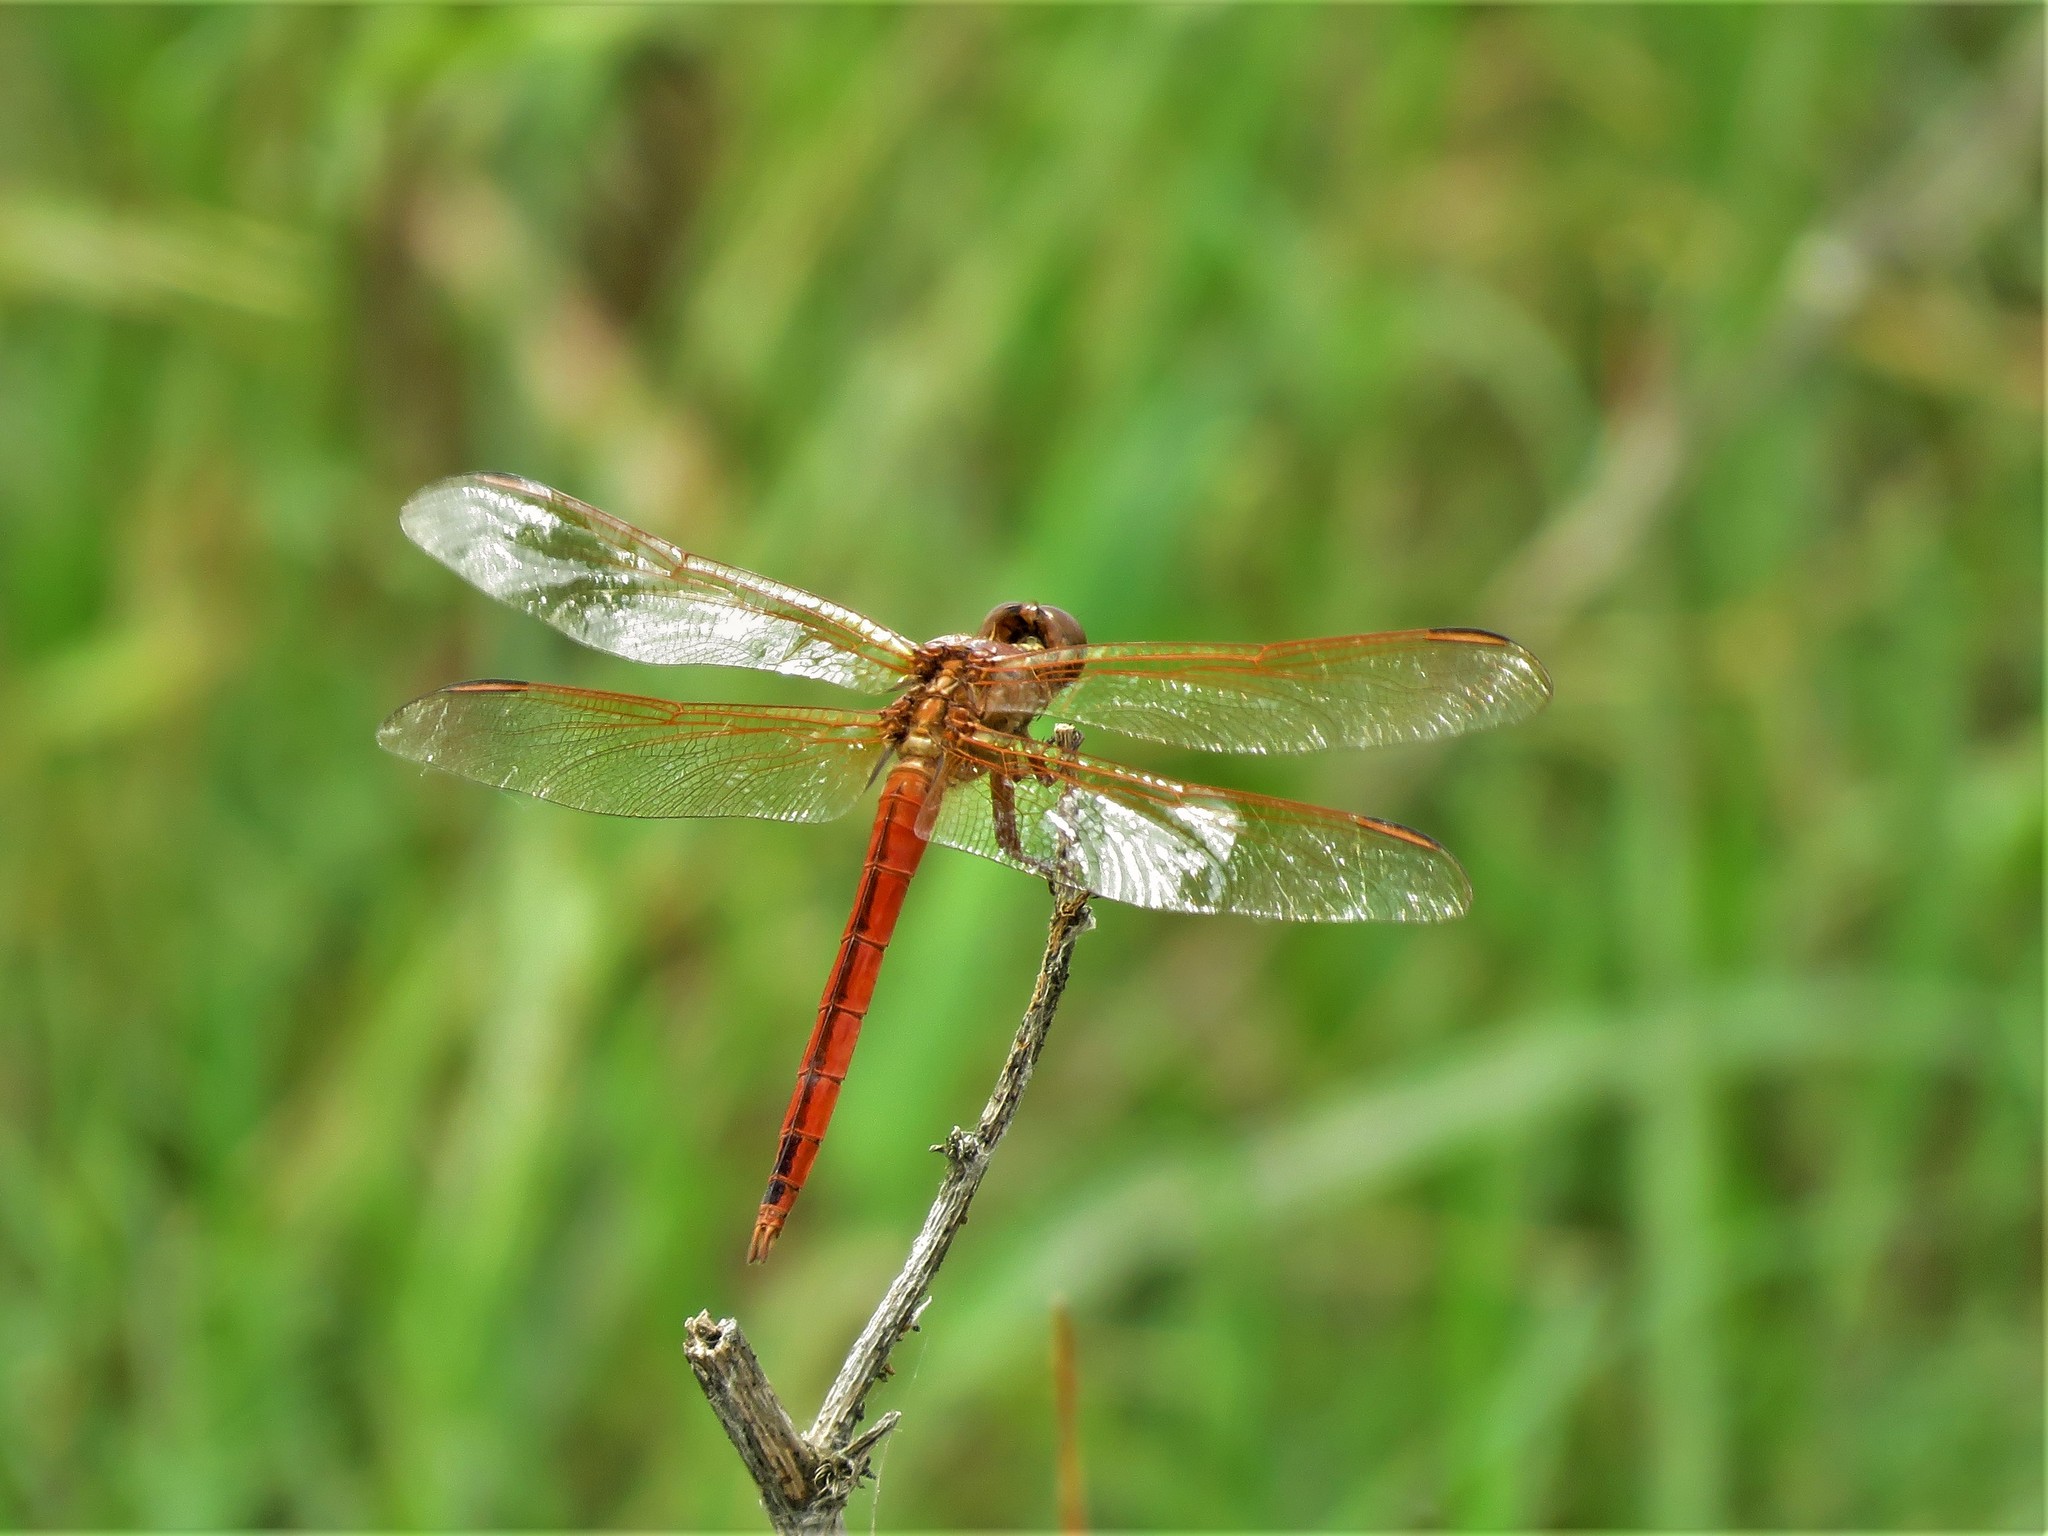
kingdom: Animalia
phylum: Arthropoda
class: Insecta
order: Odonata
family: Libellulidae
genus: Libellula
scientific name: Libellula needhami
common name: Needham's skimmer
